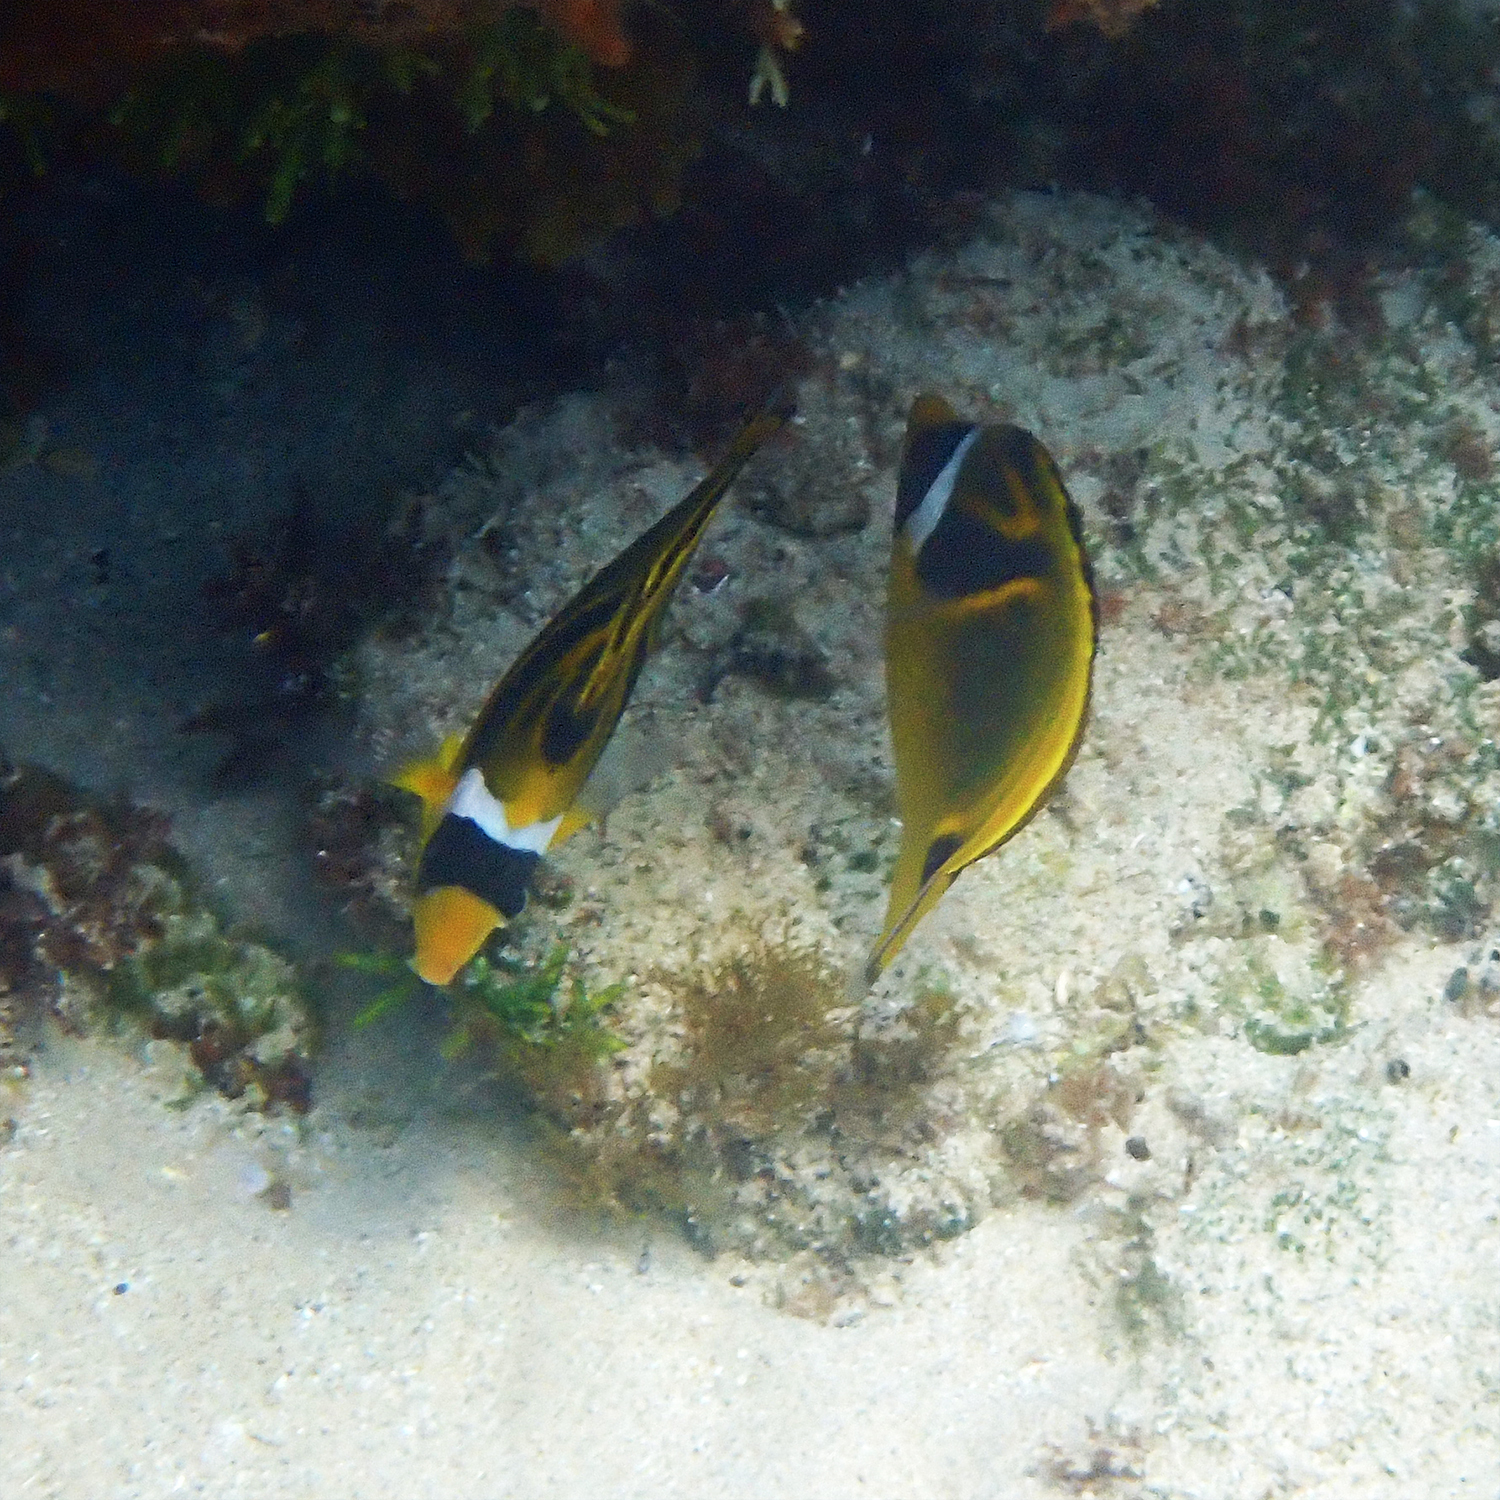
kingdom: Animalia
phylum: Chordata
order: Perciformes
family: Chaetodontidae
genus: Chaetodon
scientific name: Chaetodon lunula
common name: Raccoon butterflyfish
